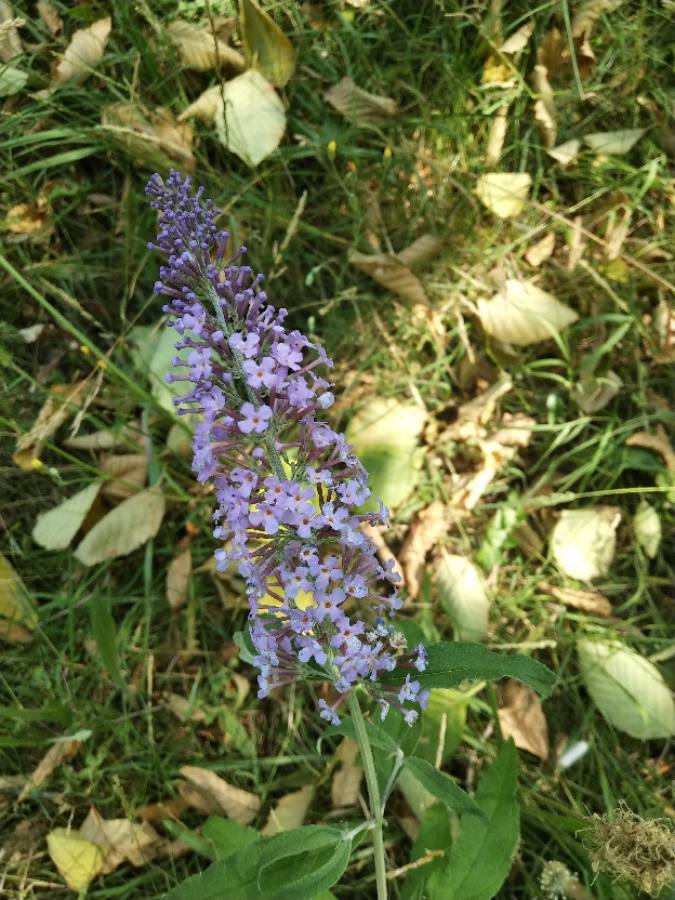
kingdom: Plantae
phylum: Tracheophyta
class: Magnoliopsida
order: Lamiales
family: Scrophulariaceae
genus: Buddleja
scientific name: Buddleja davidii
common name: Butterfly-bush
